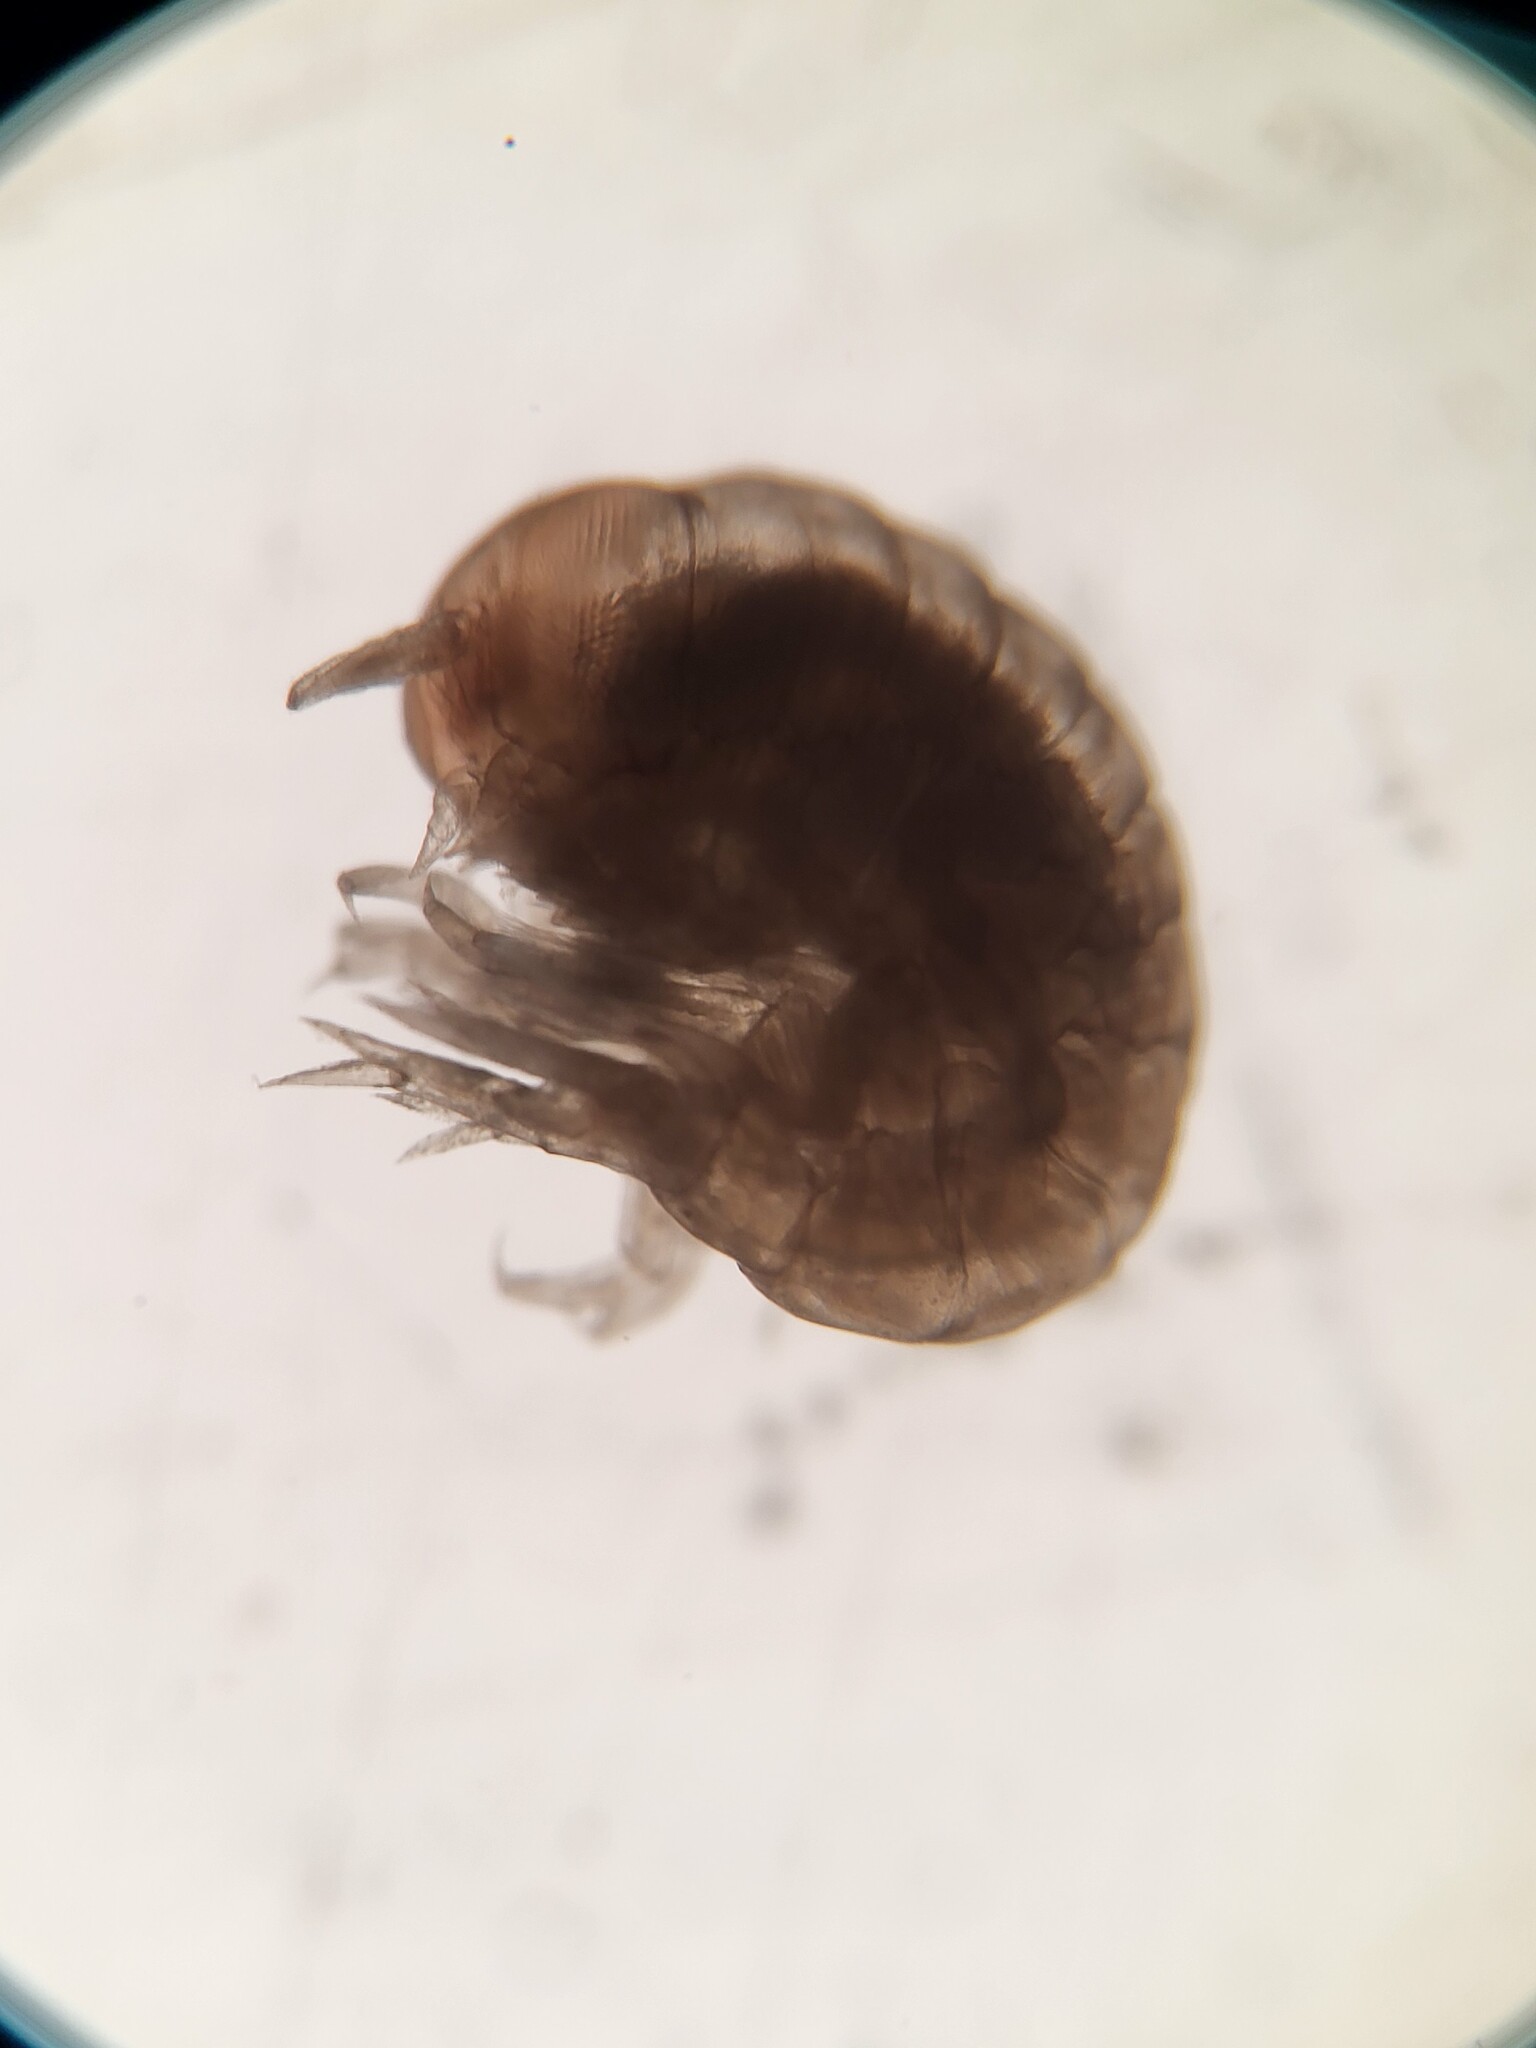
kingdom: Animalia
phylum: Arthropoda
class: Malacostraca
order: Amphipoda
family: Hyperiidae
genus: Hyperia
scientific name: Hyperia galba
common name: Big-eye amphipod
